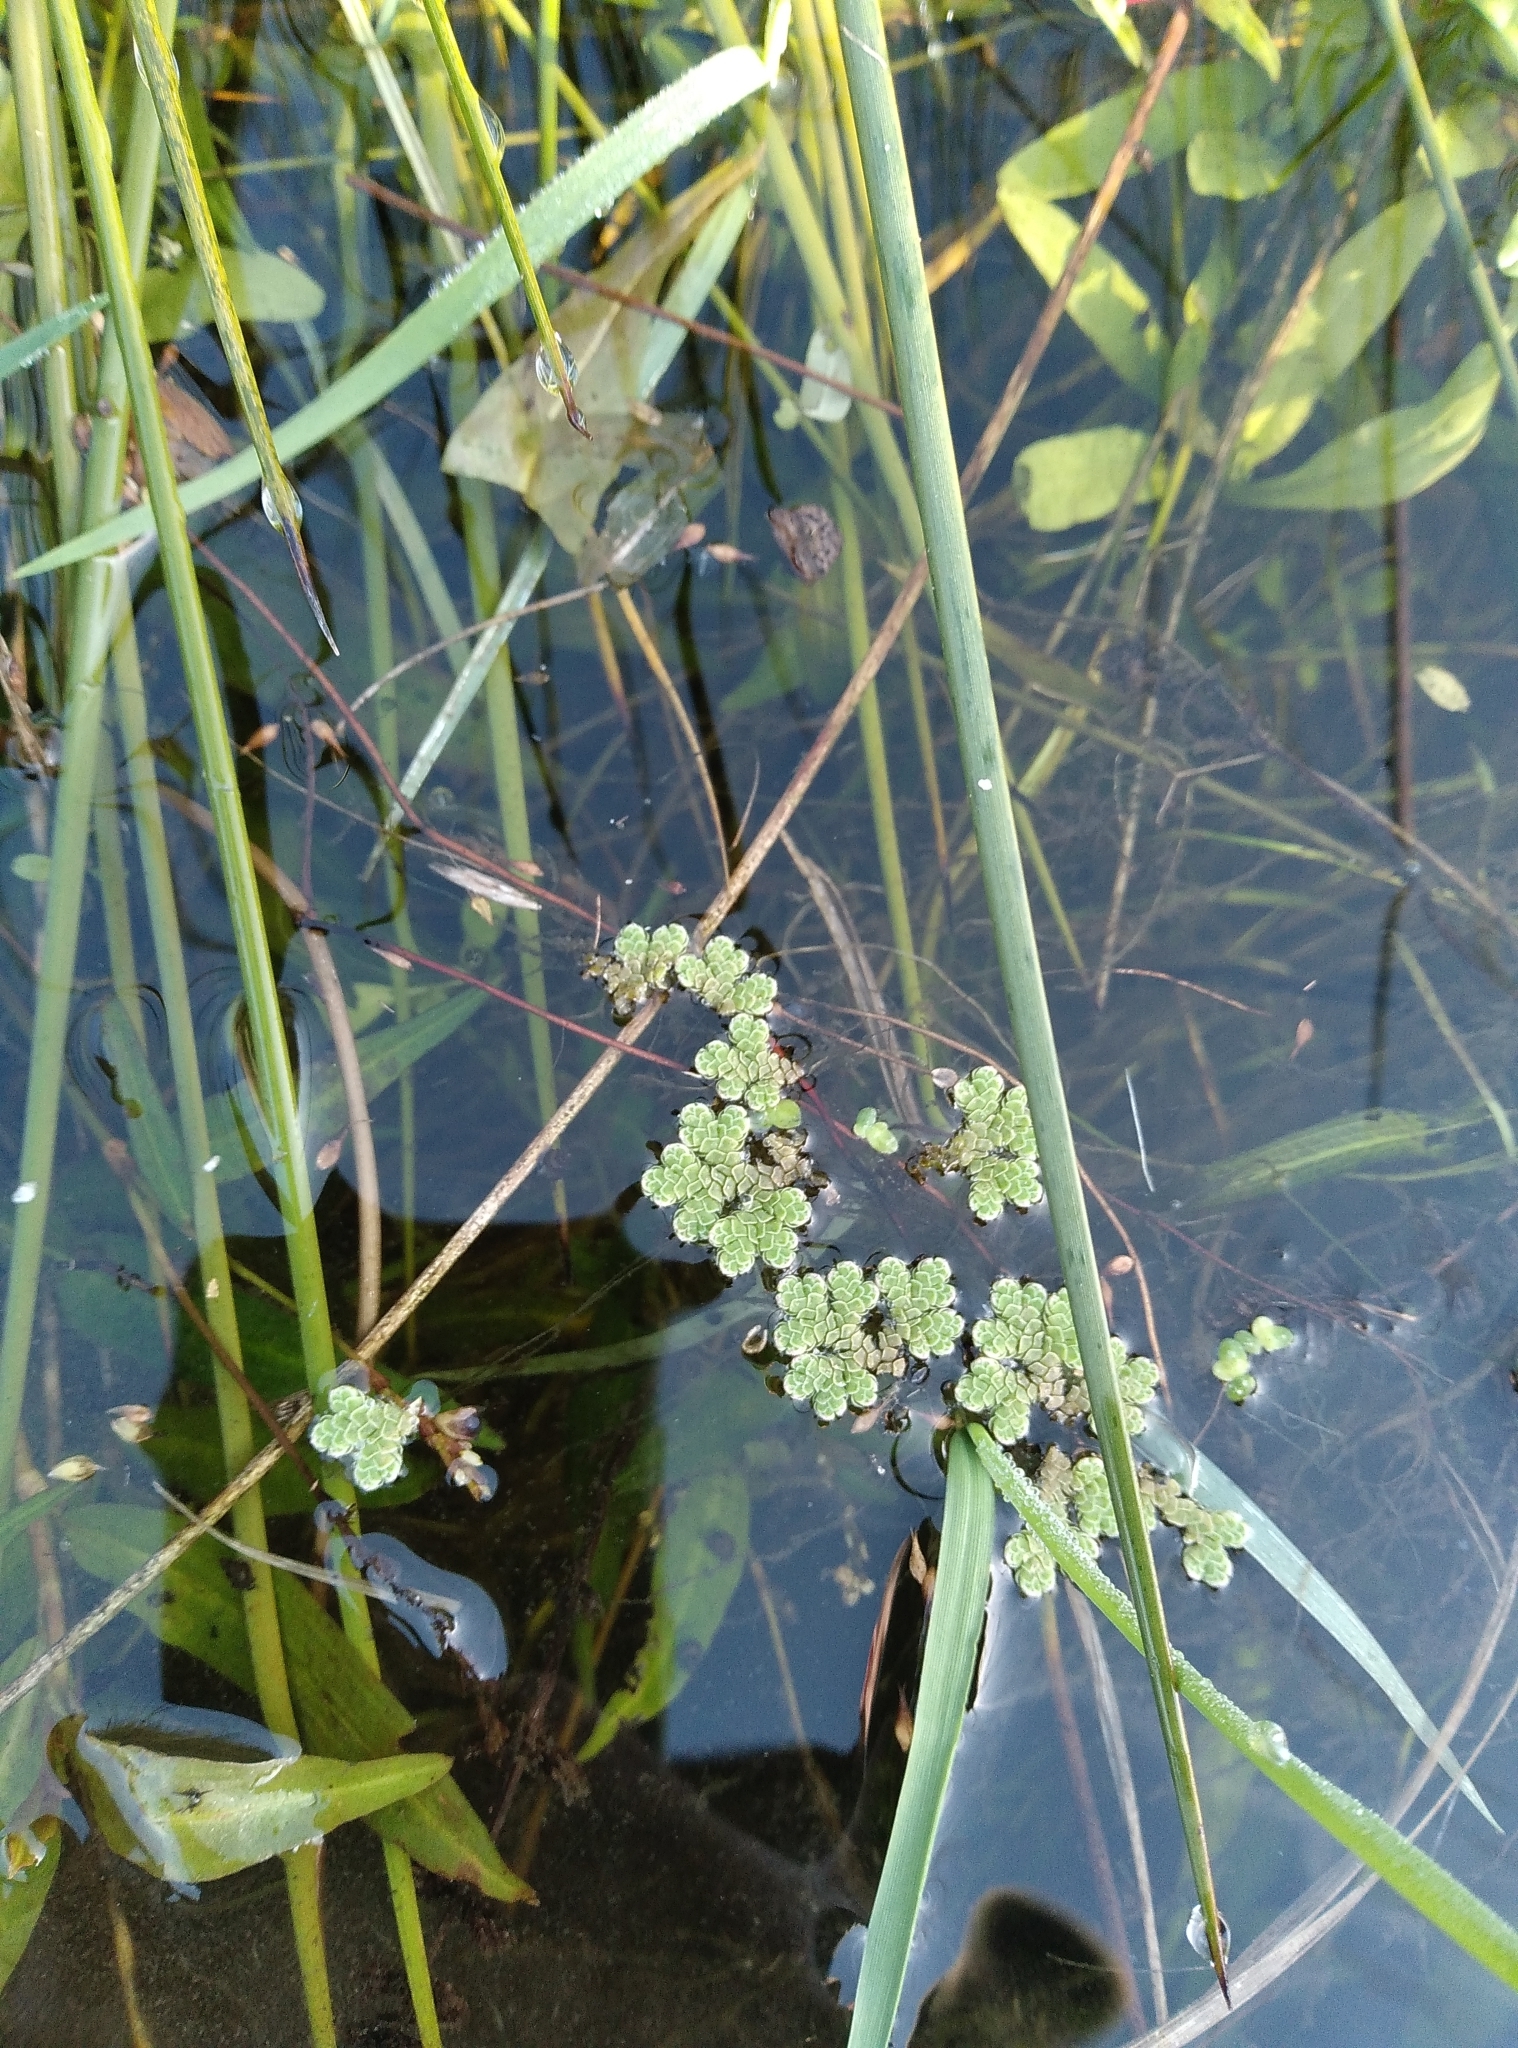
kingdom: Plantae
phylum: Tracheophyta
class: Polypodiopsida
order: Salviniales
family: Salviniaceae
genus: Azolla
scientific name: Azolla rubra
